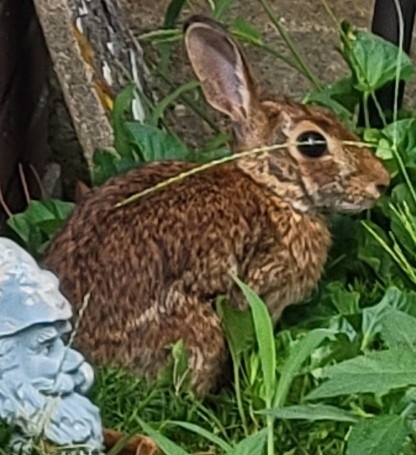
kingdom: Animalia
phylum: Chordata
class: Mammalia
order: Lagomorpha
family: Leporidae
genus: Sylvilagus
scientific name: Sylvilagus floridanus
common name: Eastern cottontail
